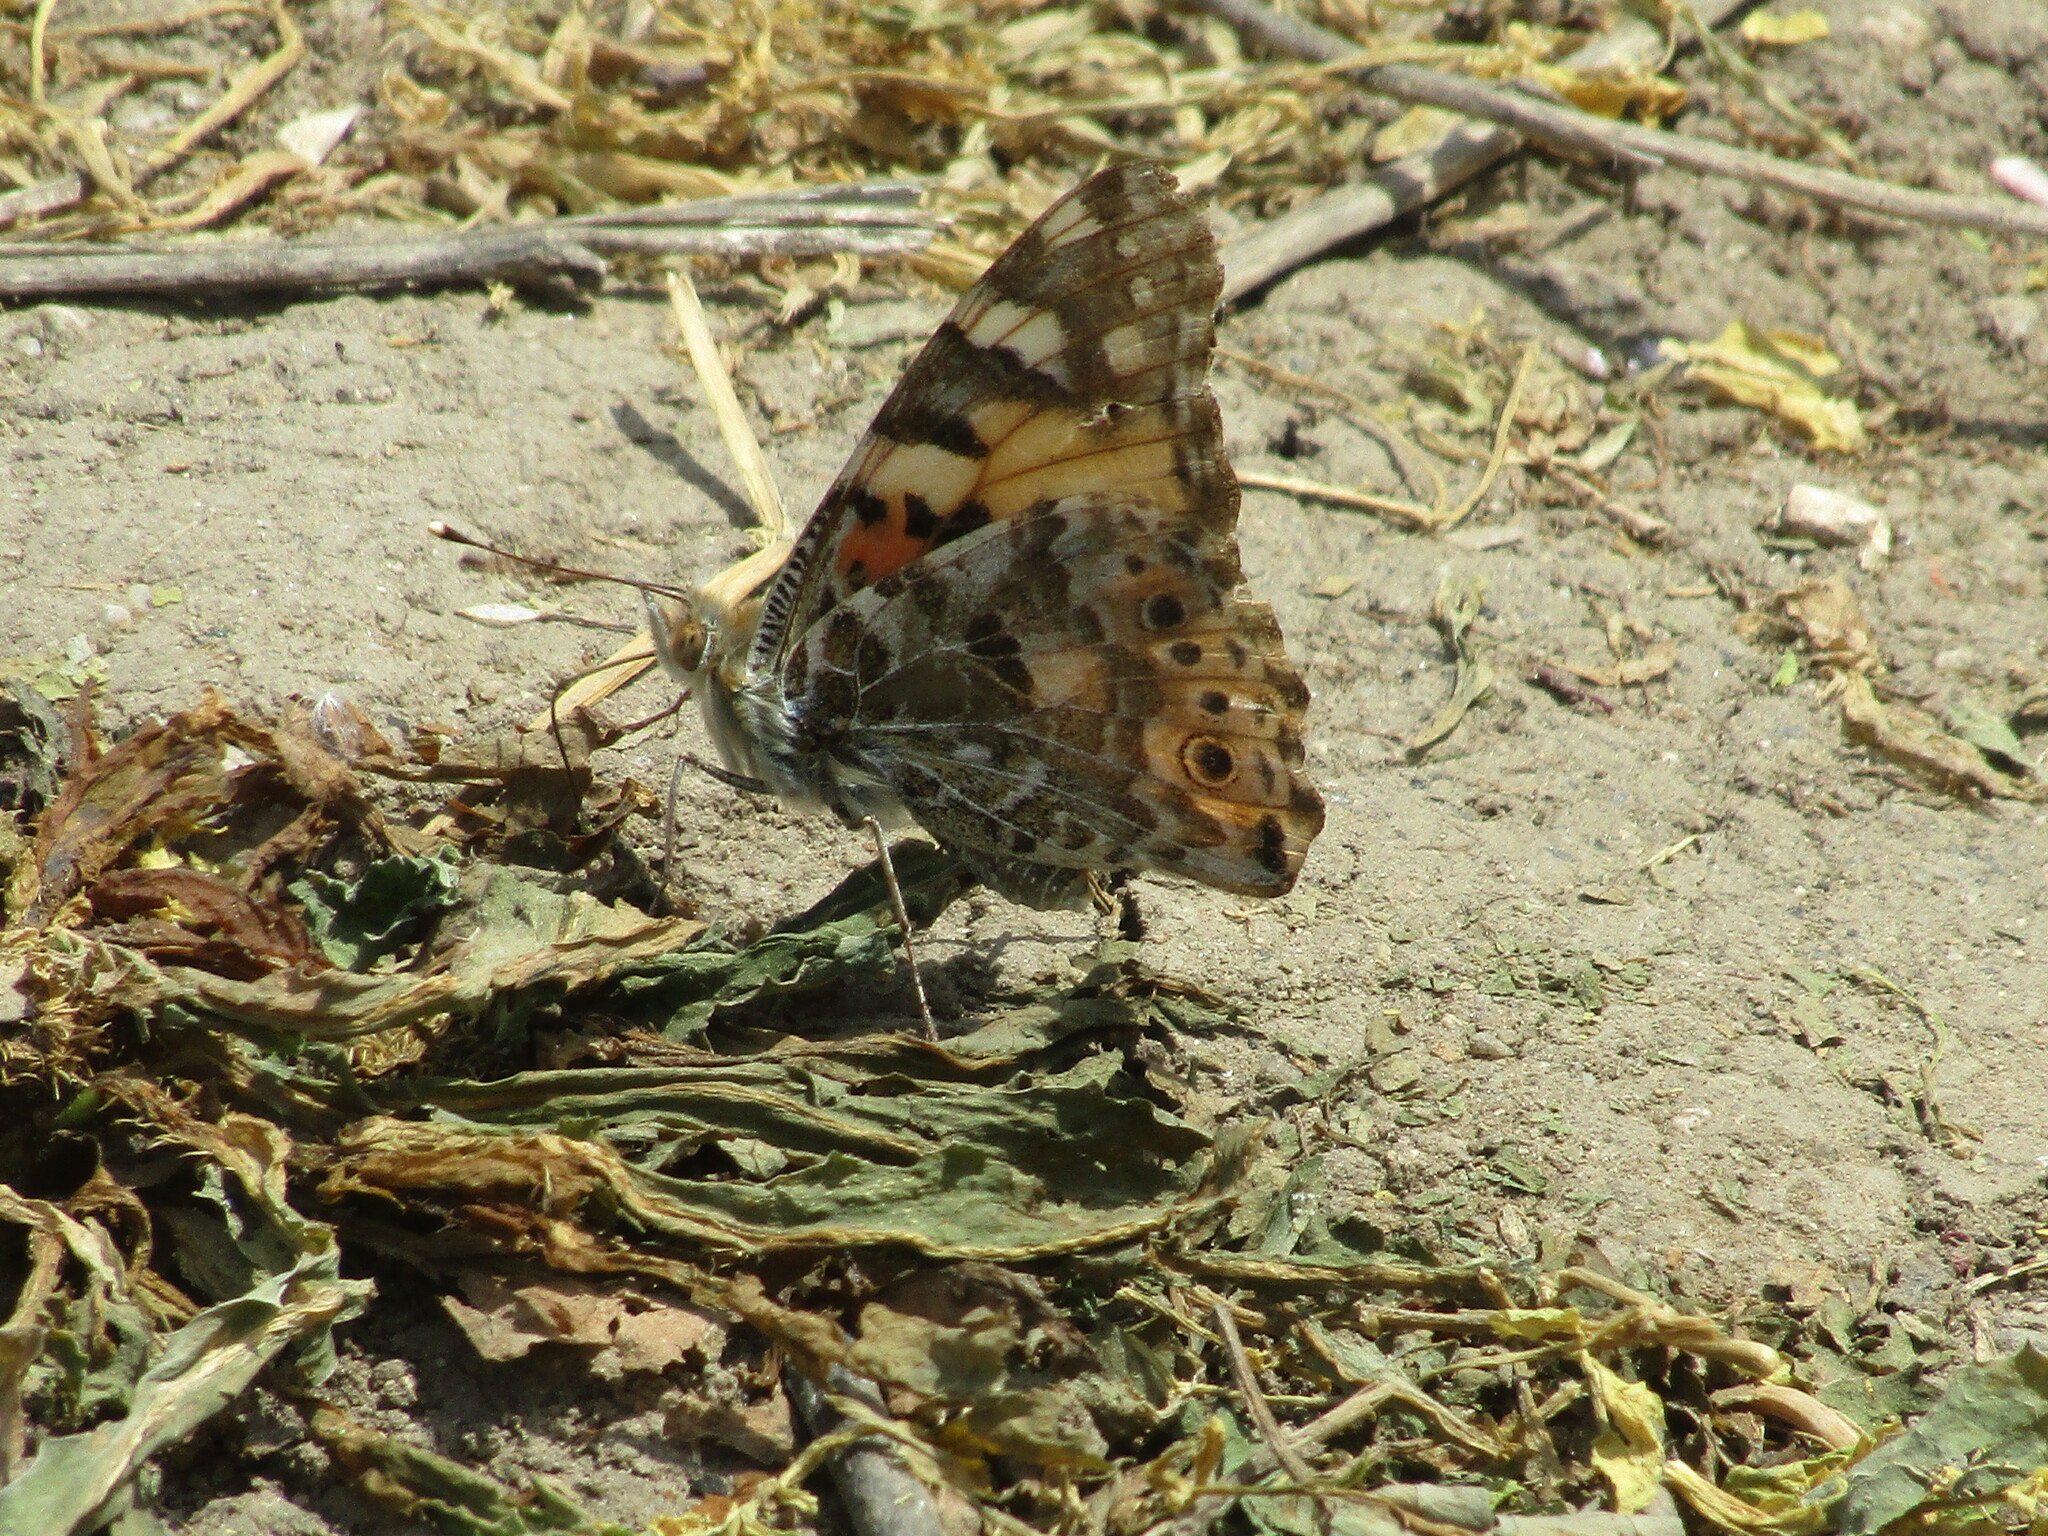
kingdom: Animalia
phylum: Arthropoda
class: Insecta
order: Lepidoptera
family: Nymphalidae
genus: Vanessa
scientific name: Vanessa cardui
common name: Painted lady
